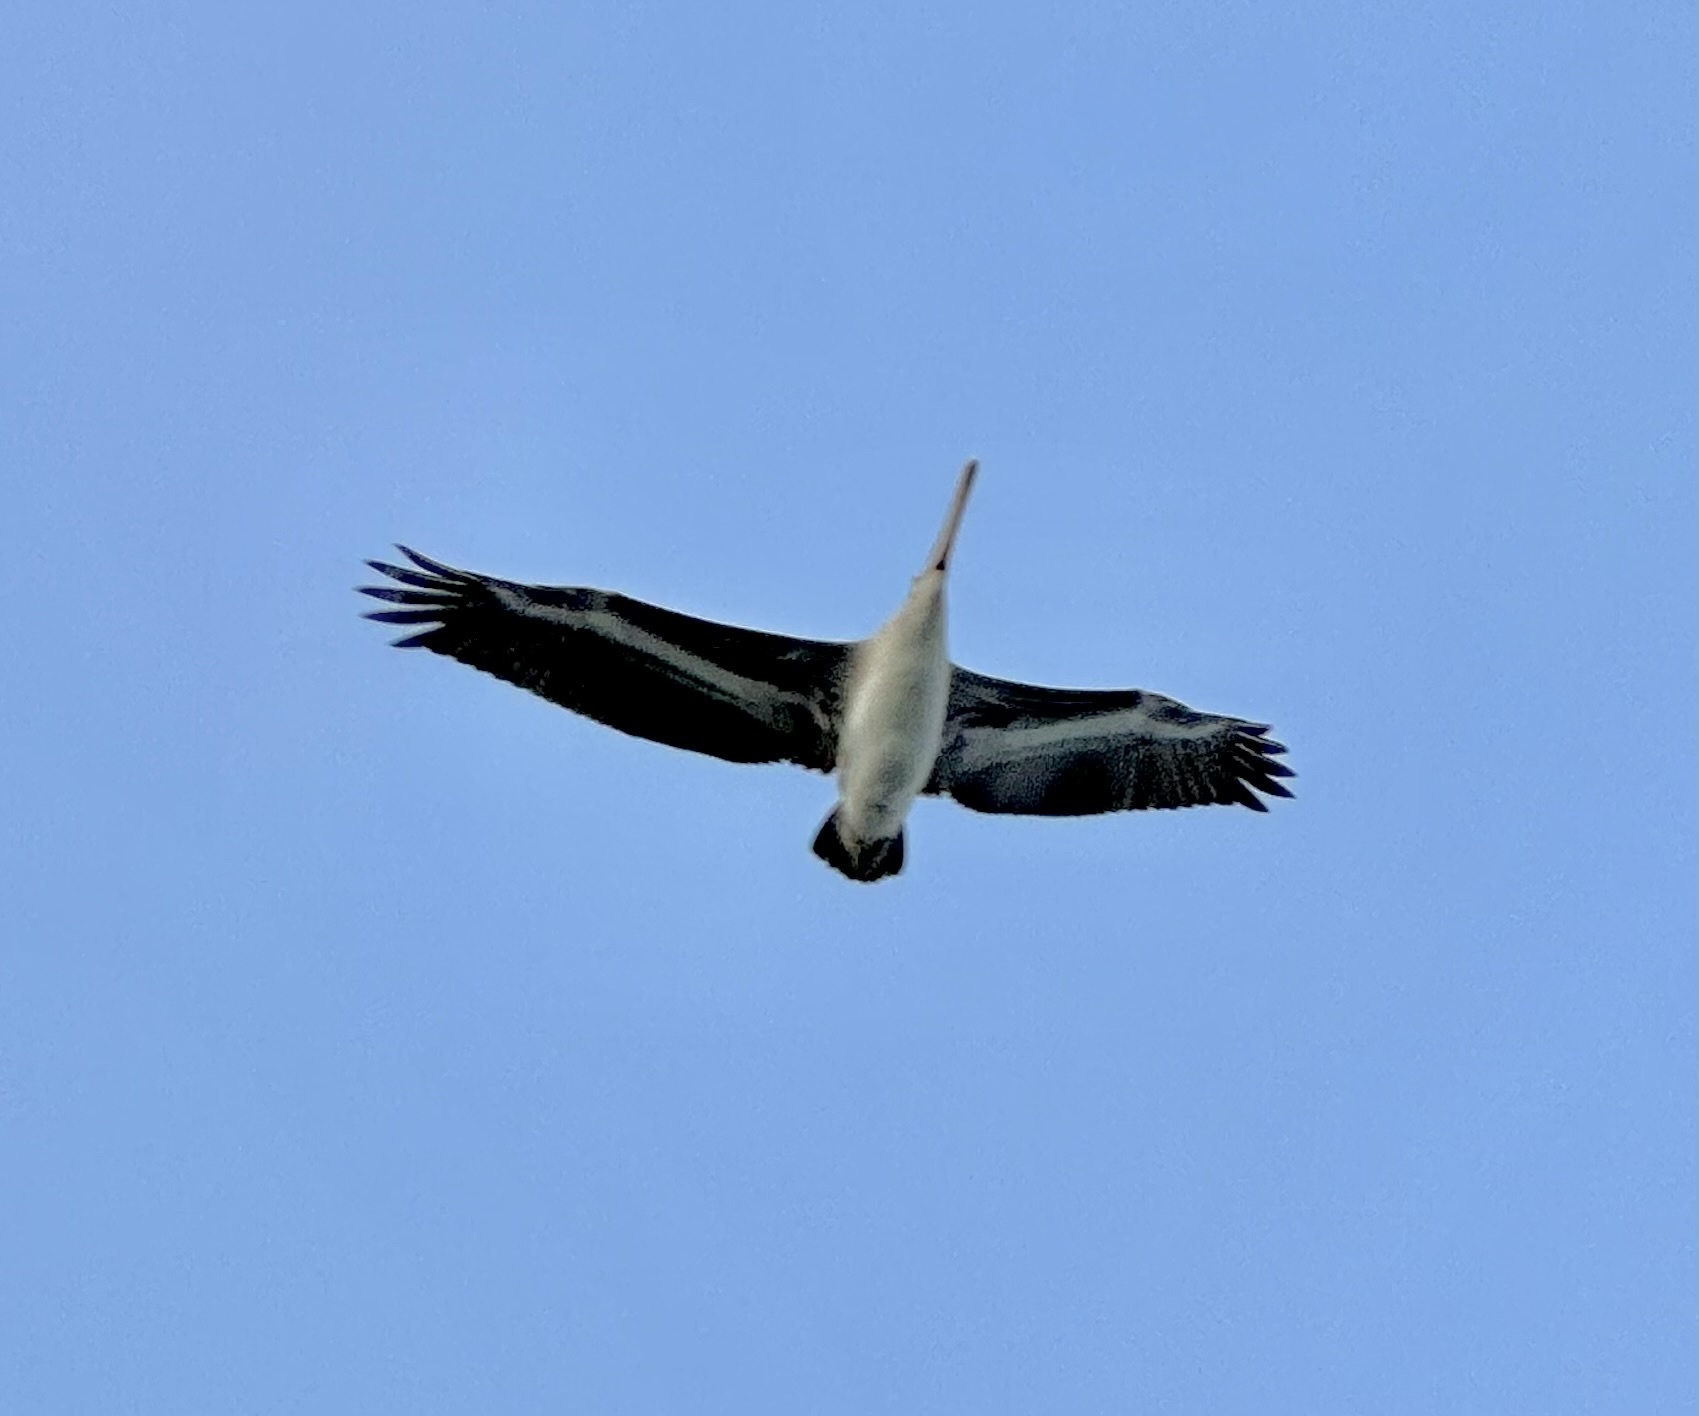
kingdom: Animalia
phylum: Chordata
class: Aves
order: Pelecaniformes
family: Pelecanidae
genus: Pelecanus
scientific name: Pelecanus occidentalis
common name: Brown pelican
